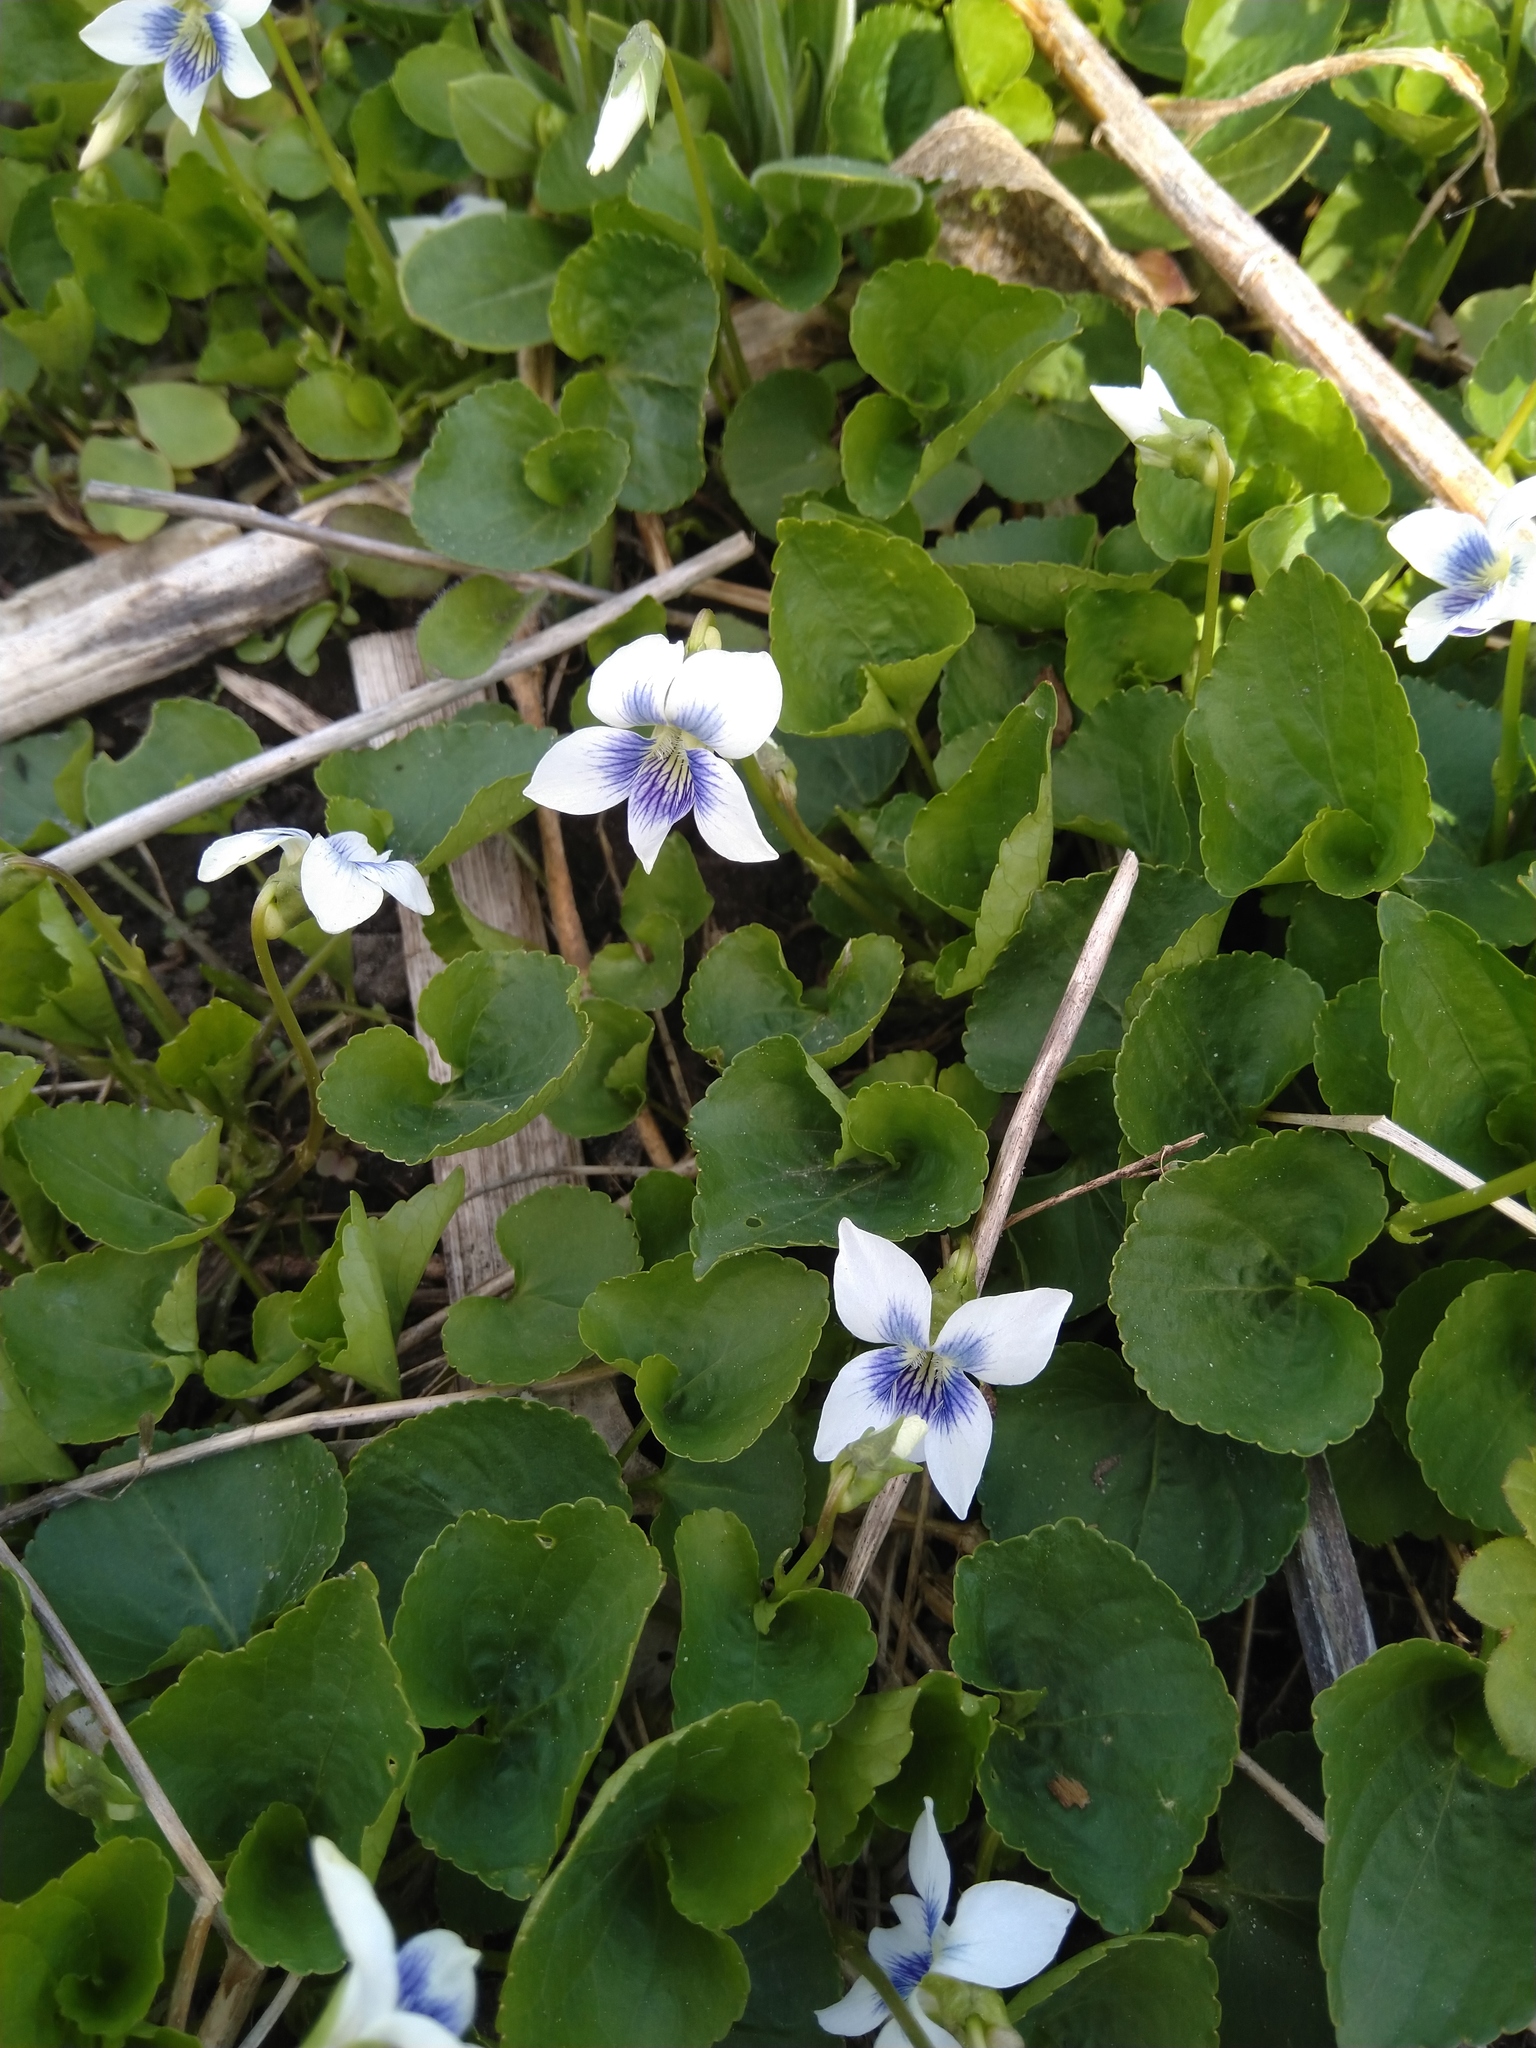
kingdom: Plantae
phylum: Tracheophyta
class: Magnoliopsida
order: Malpighiales
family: Violaceae
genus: Viola
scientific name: Viola sororia
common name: Dooryard violet
